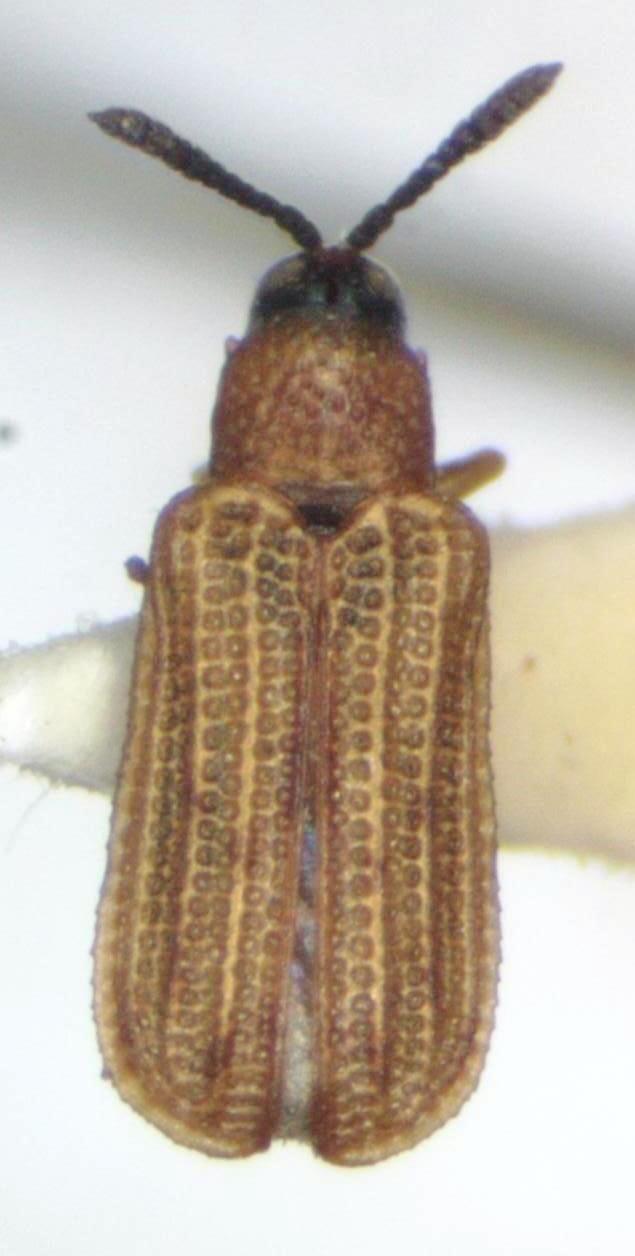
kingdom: Animalia
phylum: Arthropoda
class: Insecta
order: Coleoptera
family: Chrysomelidae
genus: Sumitrosis
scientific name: Sumitrosis pallescens
